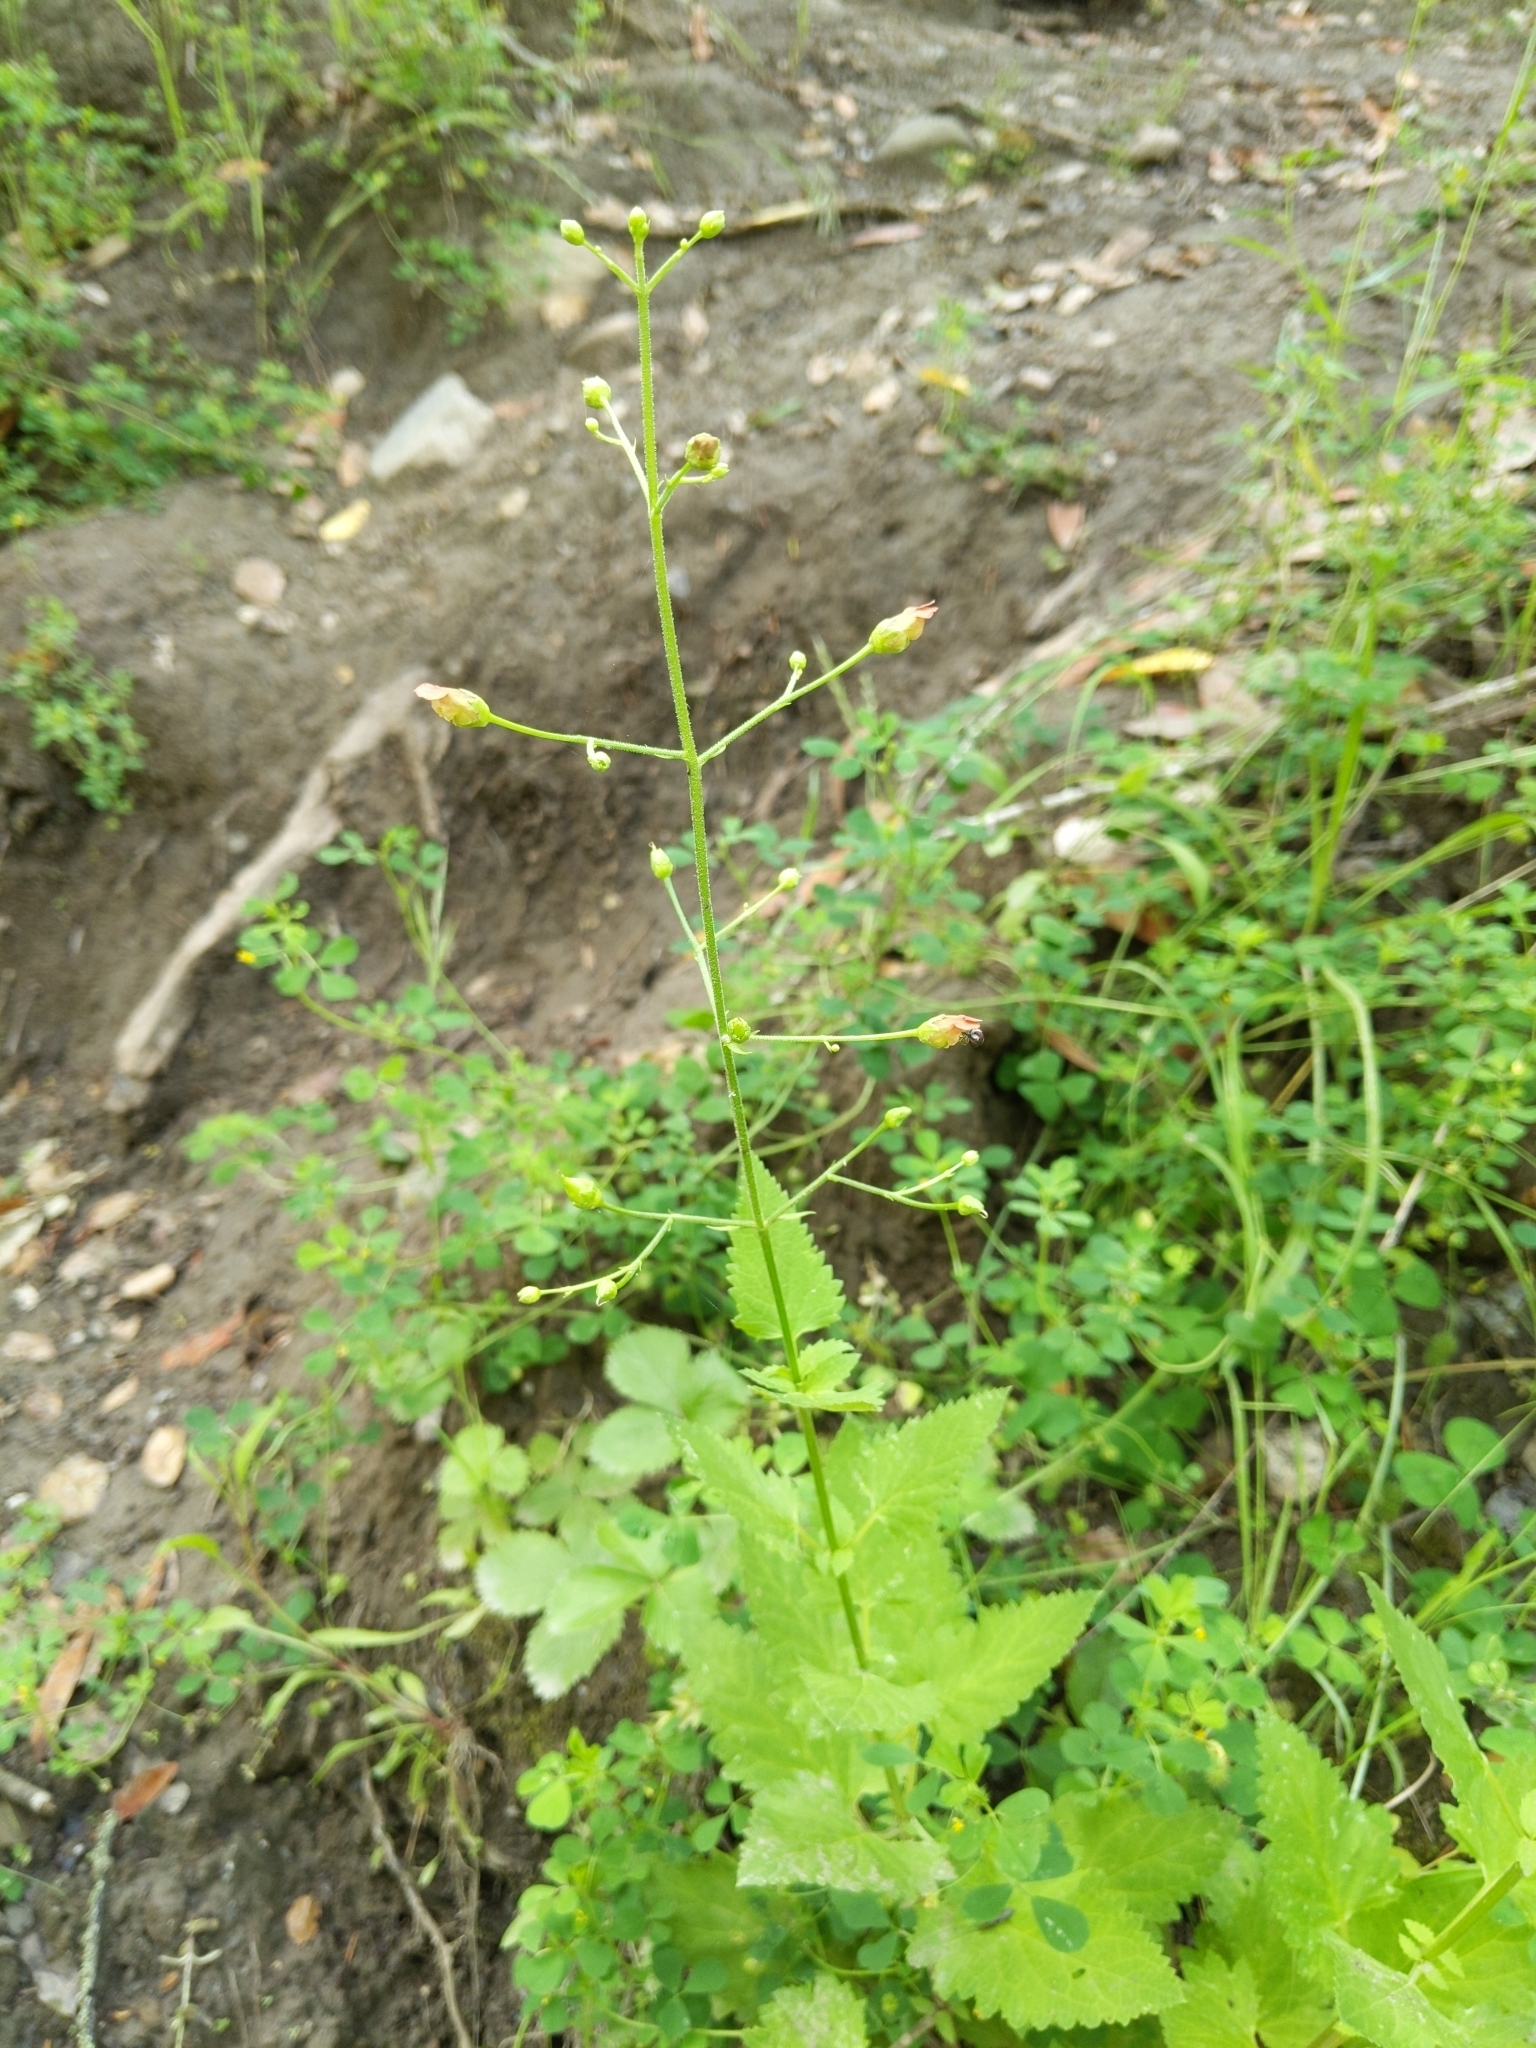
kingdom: Plantae
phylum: Tracheophyta
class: Magnoliopsida
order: Lamiales
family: Scrophulariaceae
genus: Scrophularia
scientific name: Scrophularia californica
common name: California figwort
